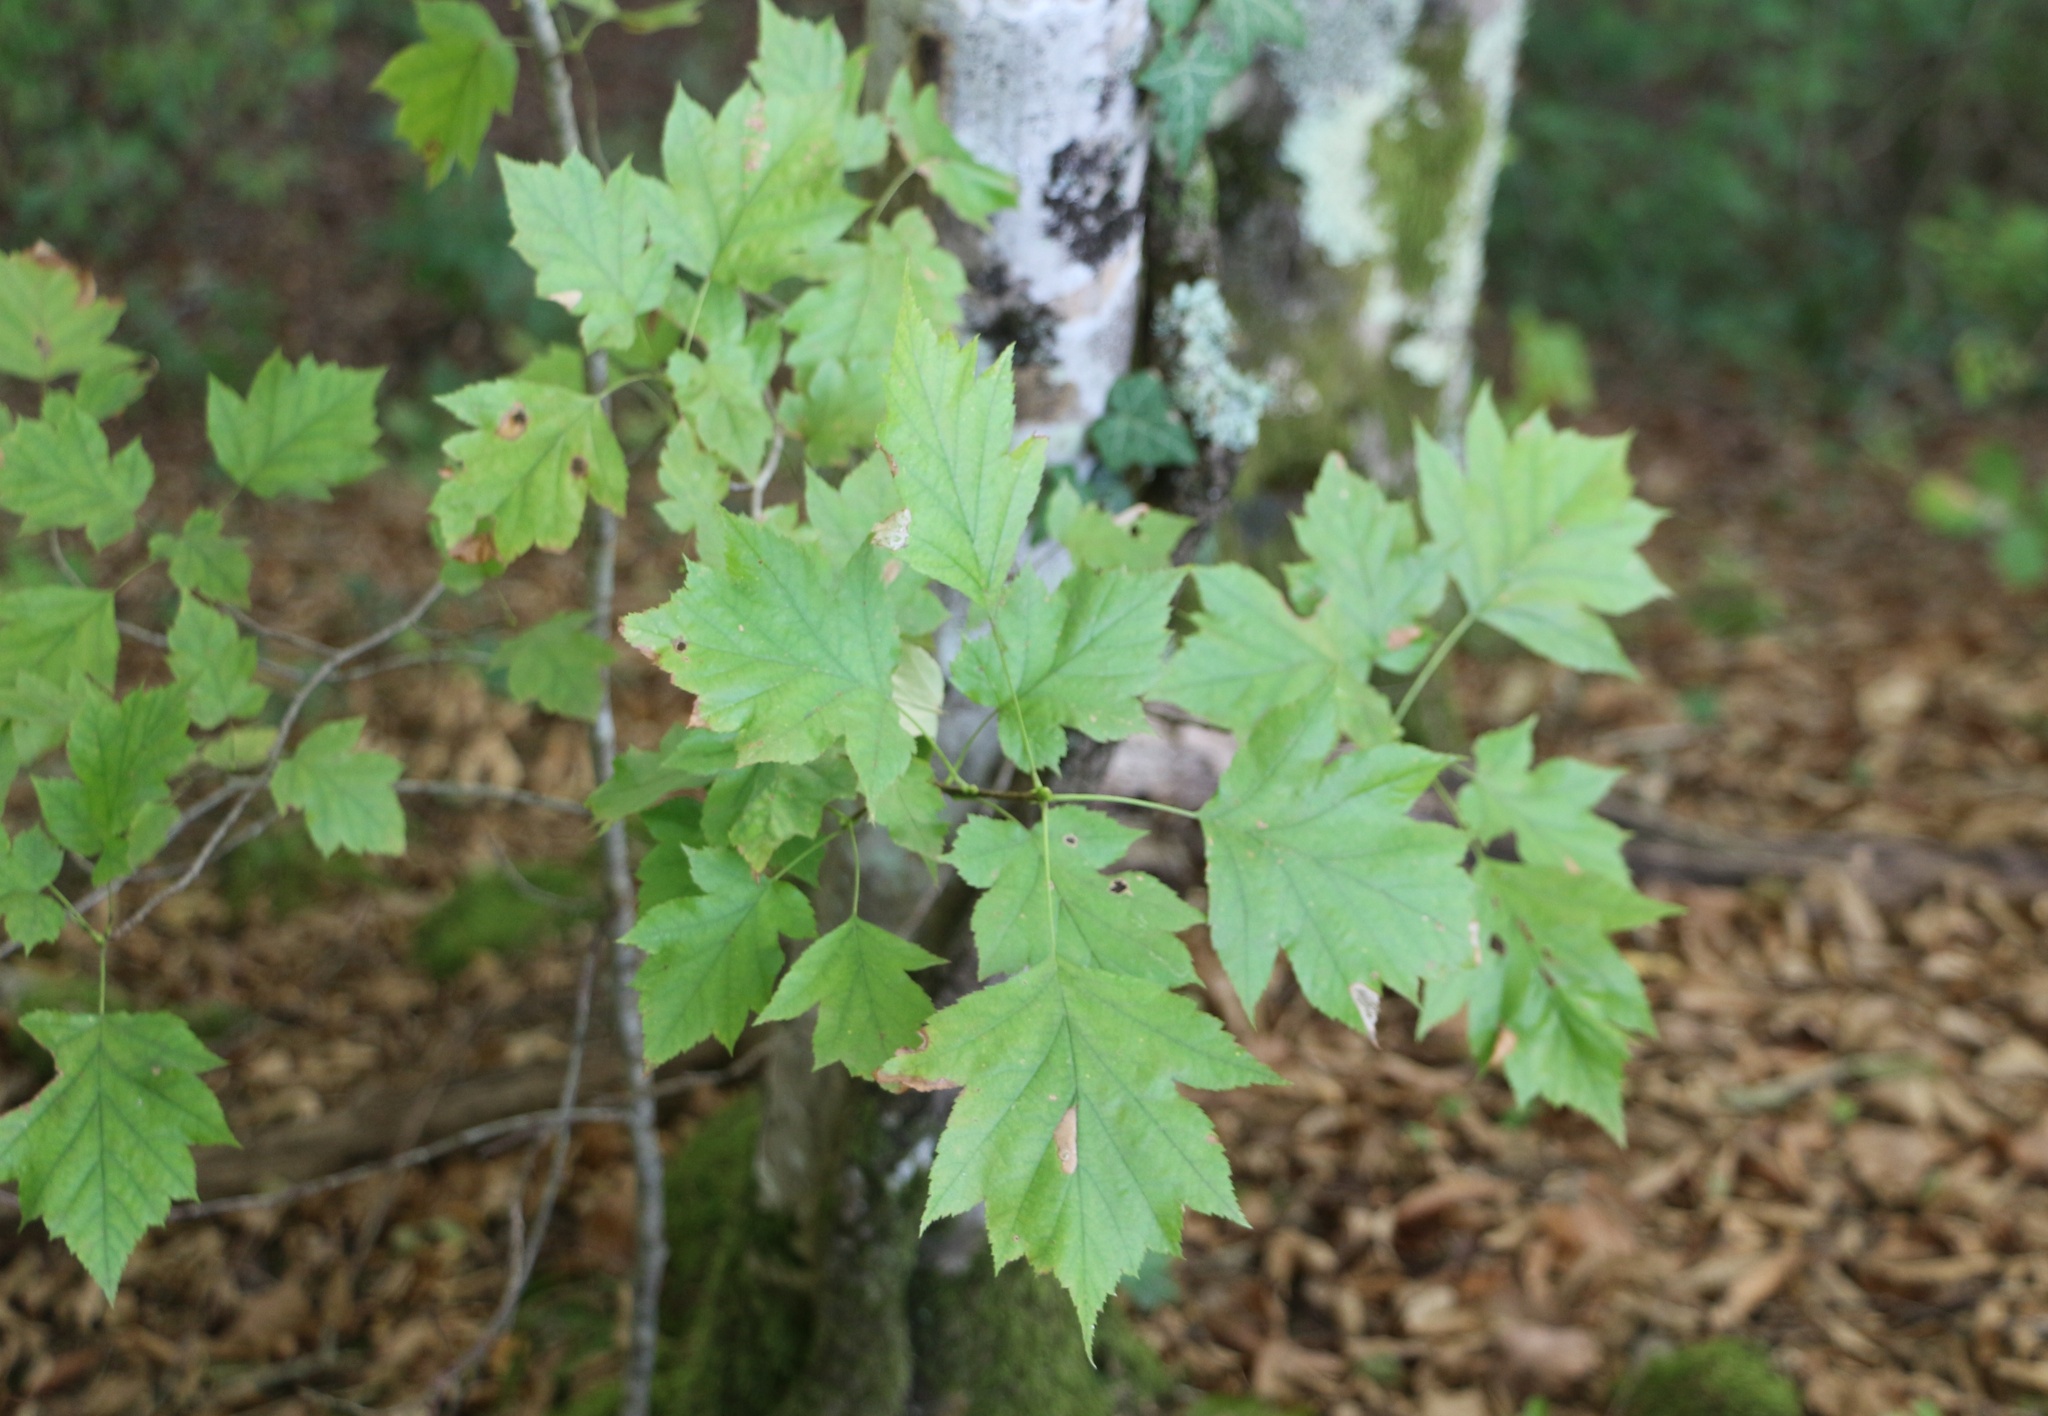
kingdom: Plantae
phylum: Tracheophyta
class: Magnoliopsida
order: Rosales
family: Rosaceae
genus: Torminalis
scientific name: Torminalis glaberrima
